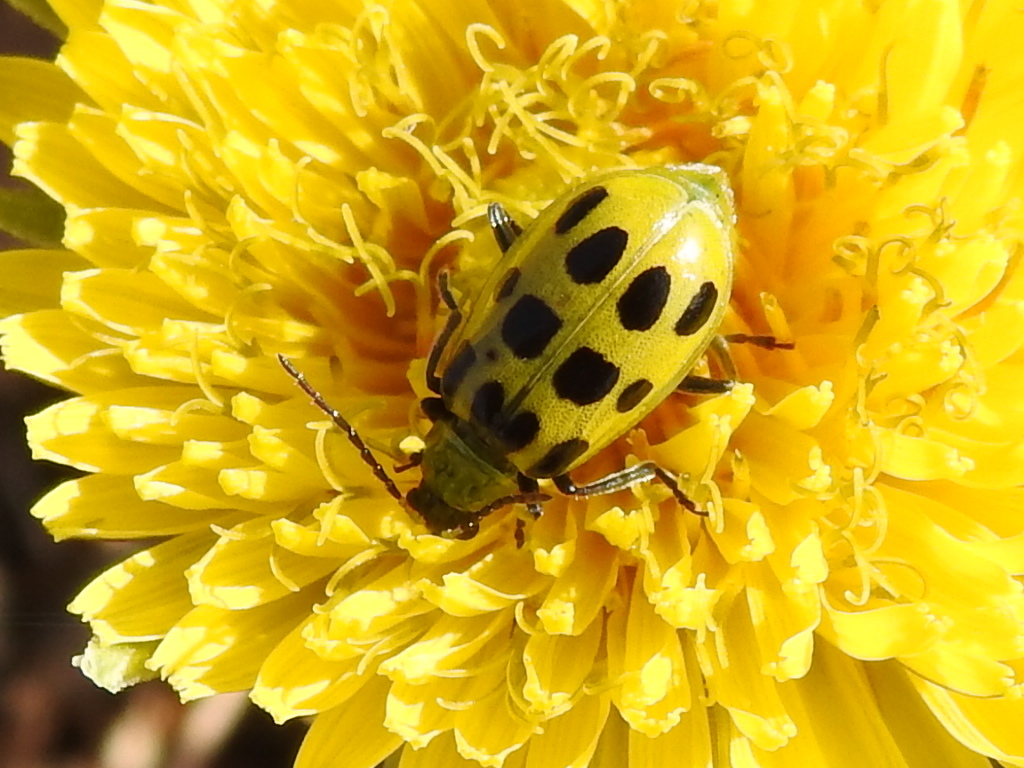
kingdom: Animalia
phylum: Arthropoda
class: Insecta
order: Coleoptera
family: Chrysomelidae
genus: Diabrotica
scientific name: Diabrotica undecimpunctata
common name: Spotted cucumber beetle
